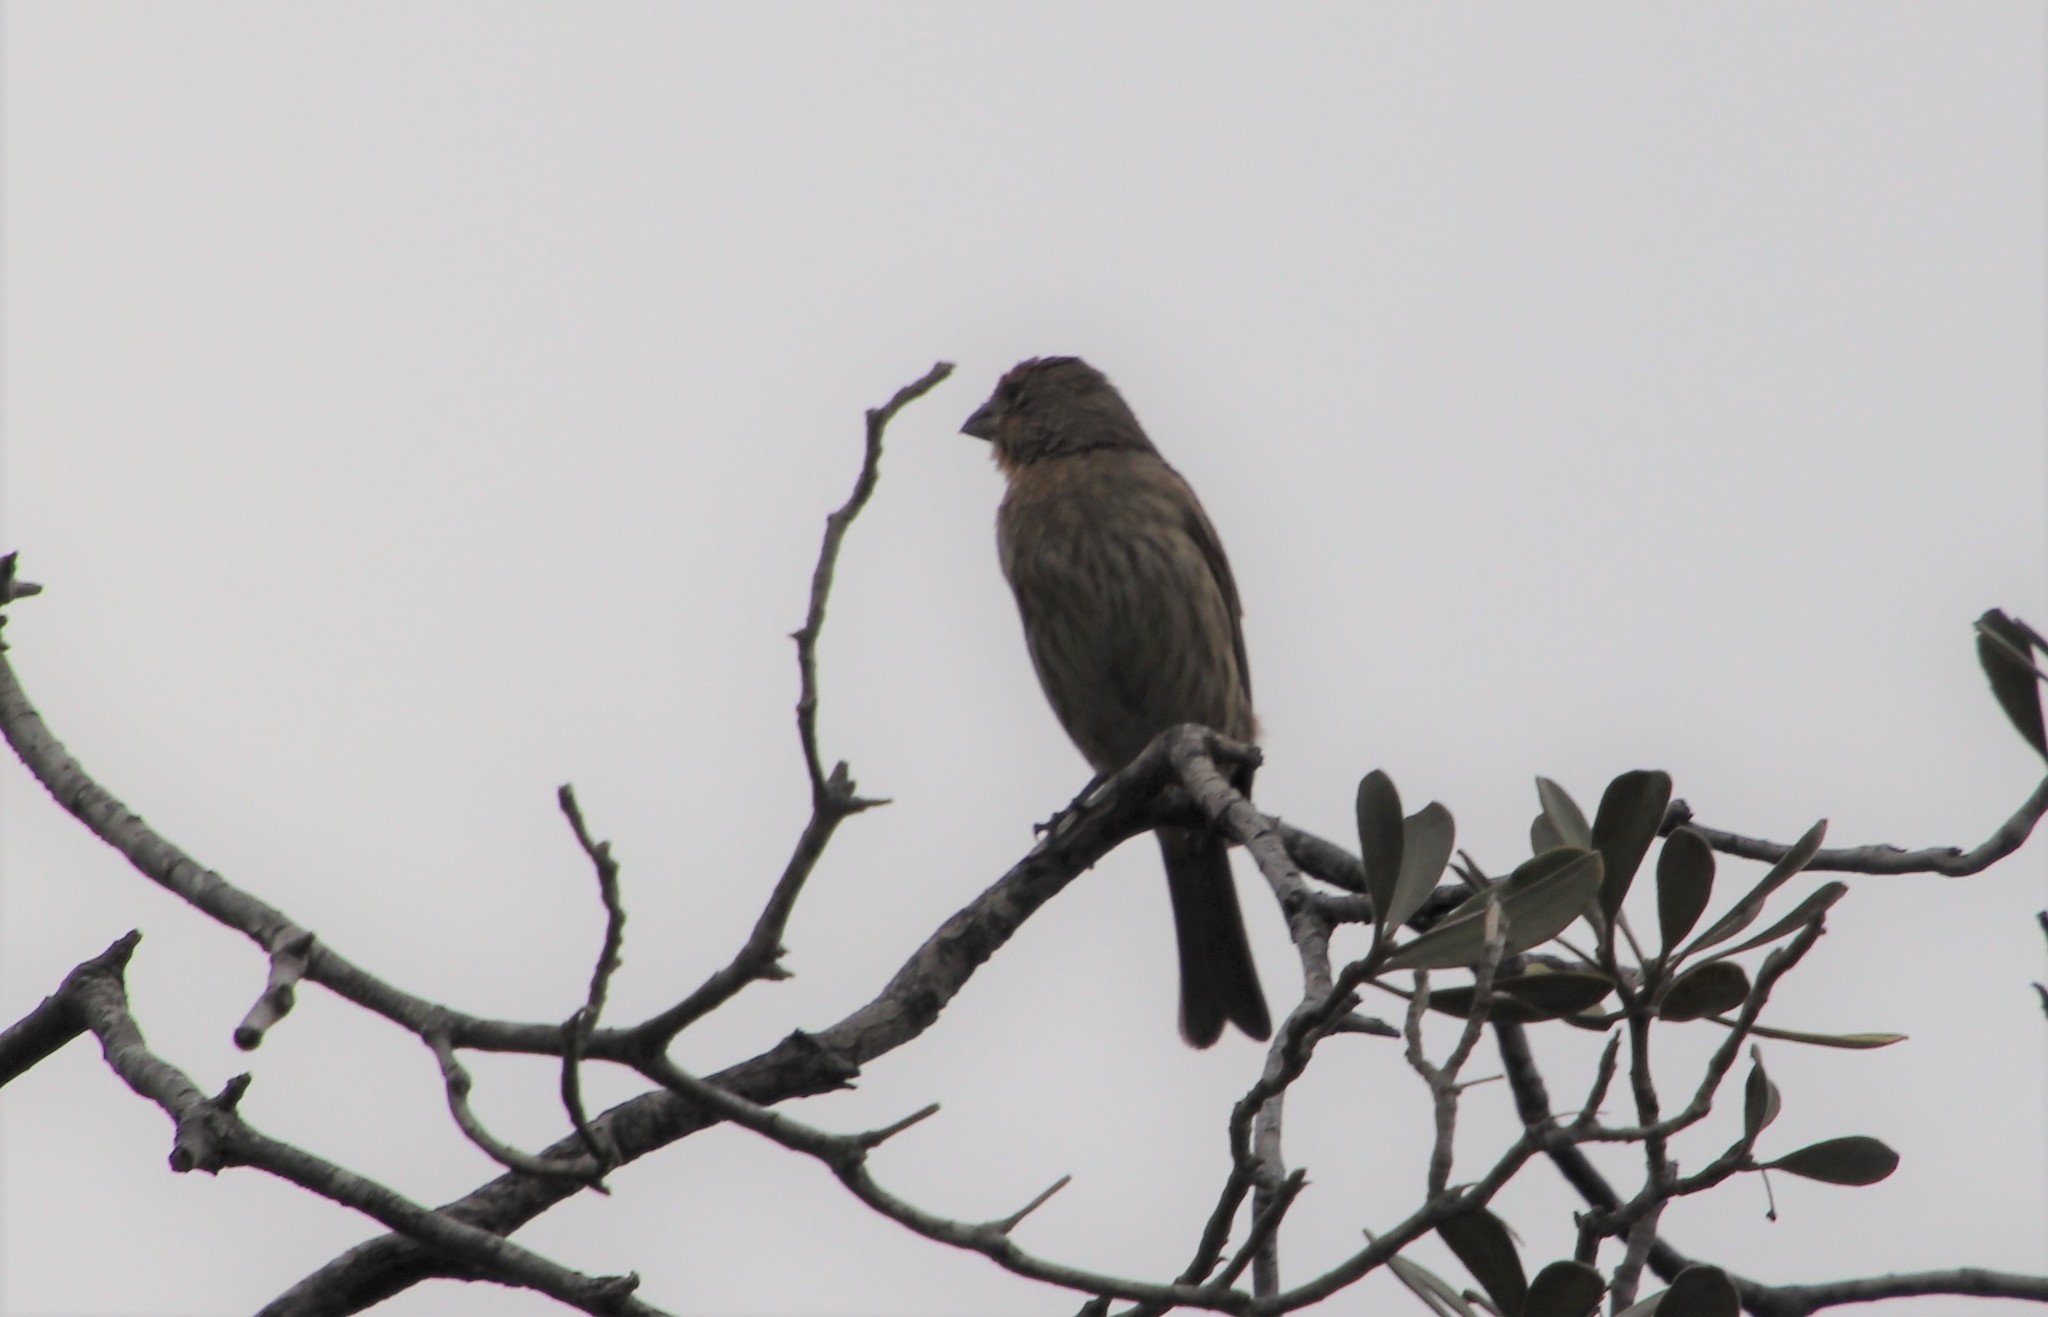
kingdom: Animalia
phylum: Chordata
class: Aves
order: Passeriformes
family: Fringillidae
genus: Haemorhous
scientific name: Haemorhous mexicanus
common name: House finch
